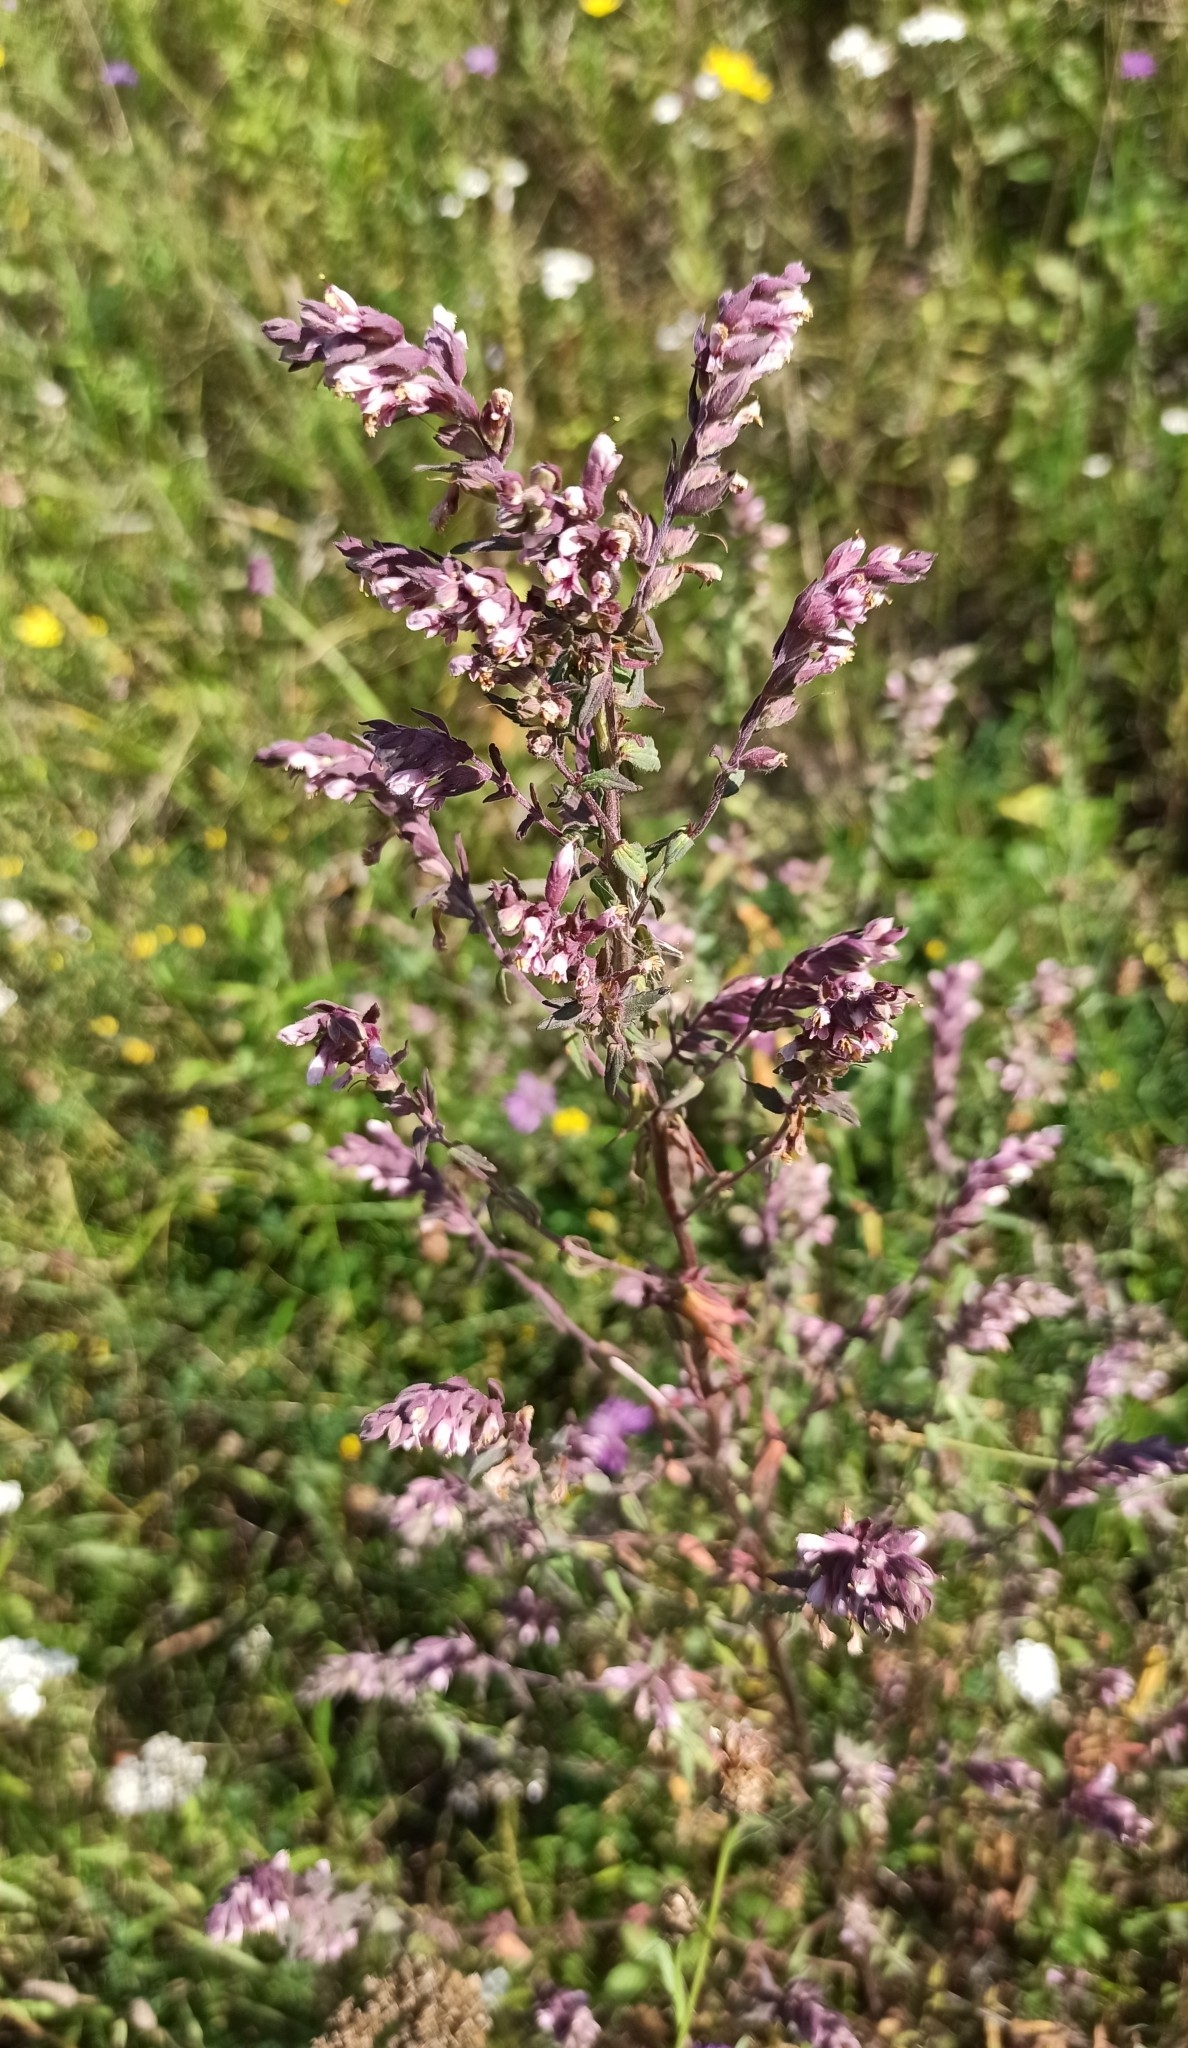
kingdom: Plantae
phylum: Tracheophyta
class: Magnoliopsida
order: Lamiales
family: Orobanchaceae
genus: Odontites
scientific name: Odontites vulgaris
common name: Broomrape
